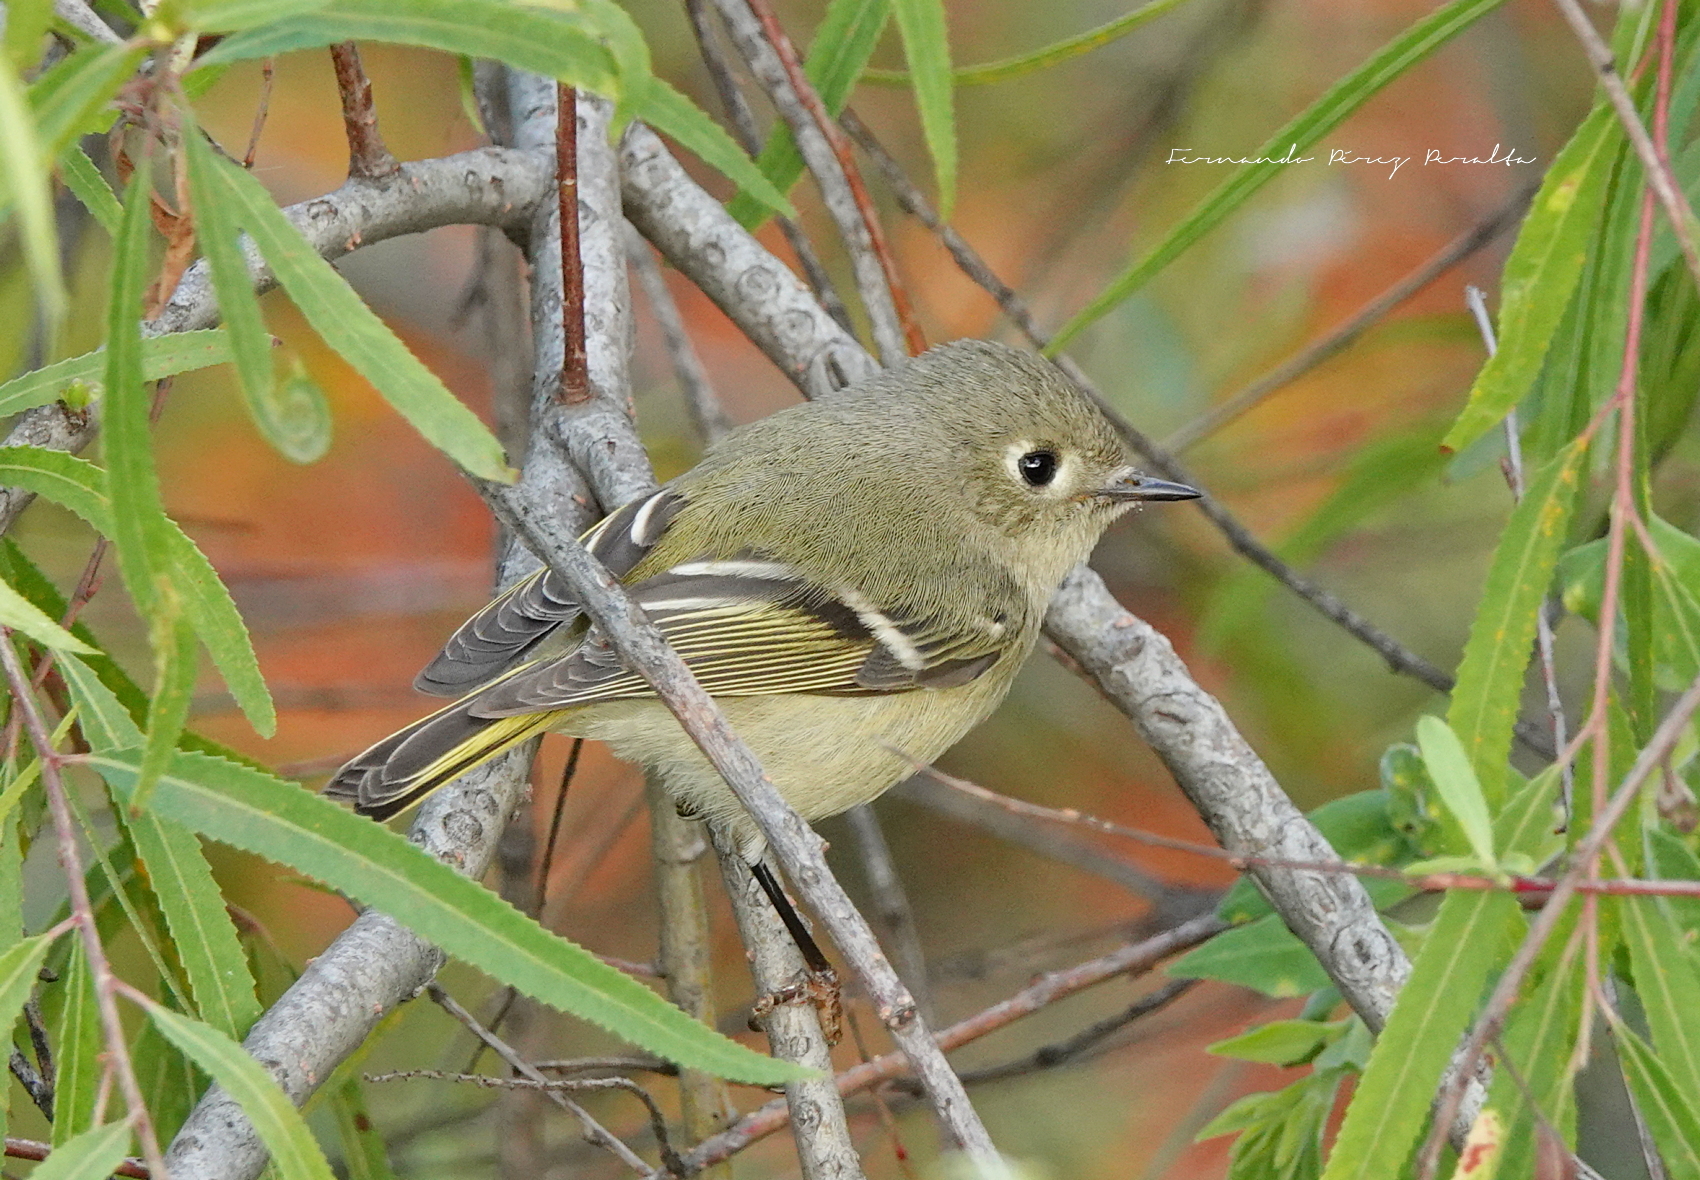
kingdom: Animalia
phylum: Chordata
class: Aves
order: Passeriformes
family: Regulidae
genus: Regulus
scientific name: Regulus calendula
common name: Ruby-crowned kinglet
